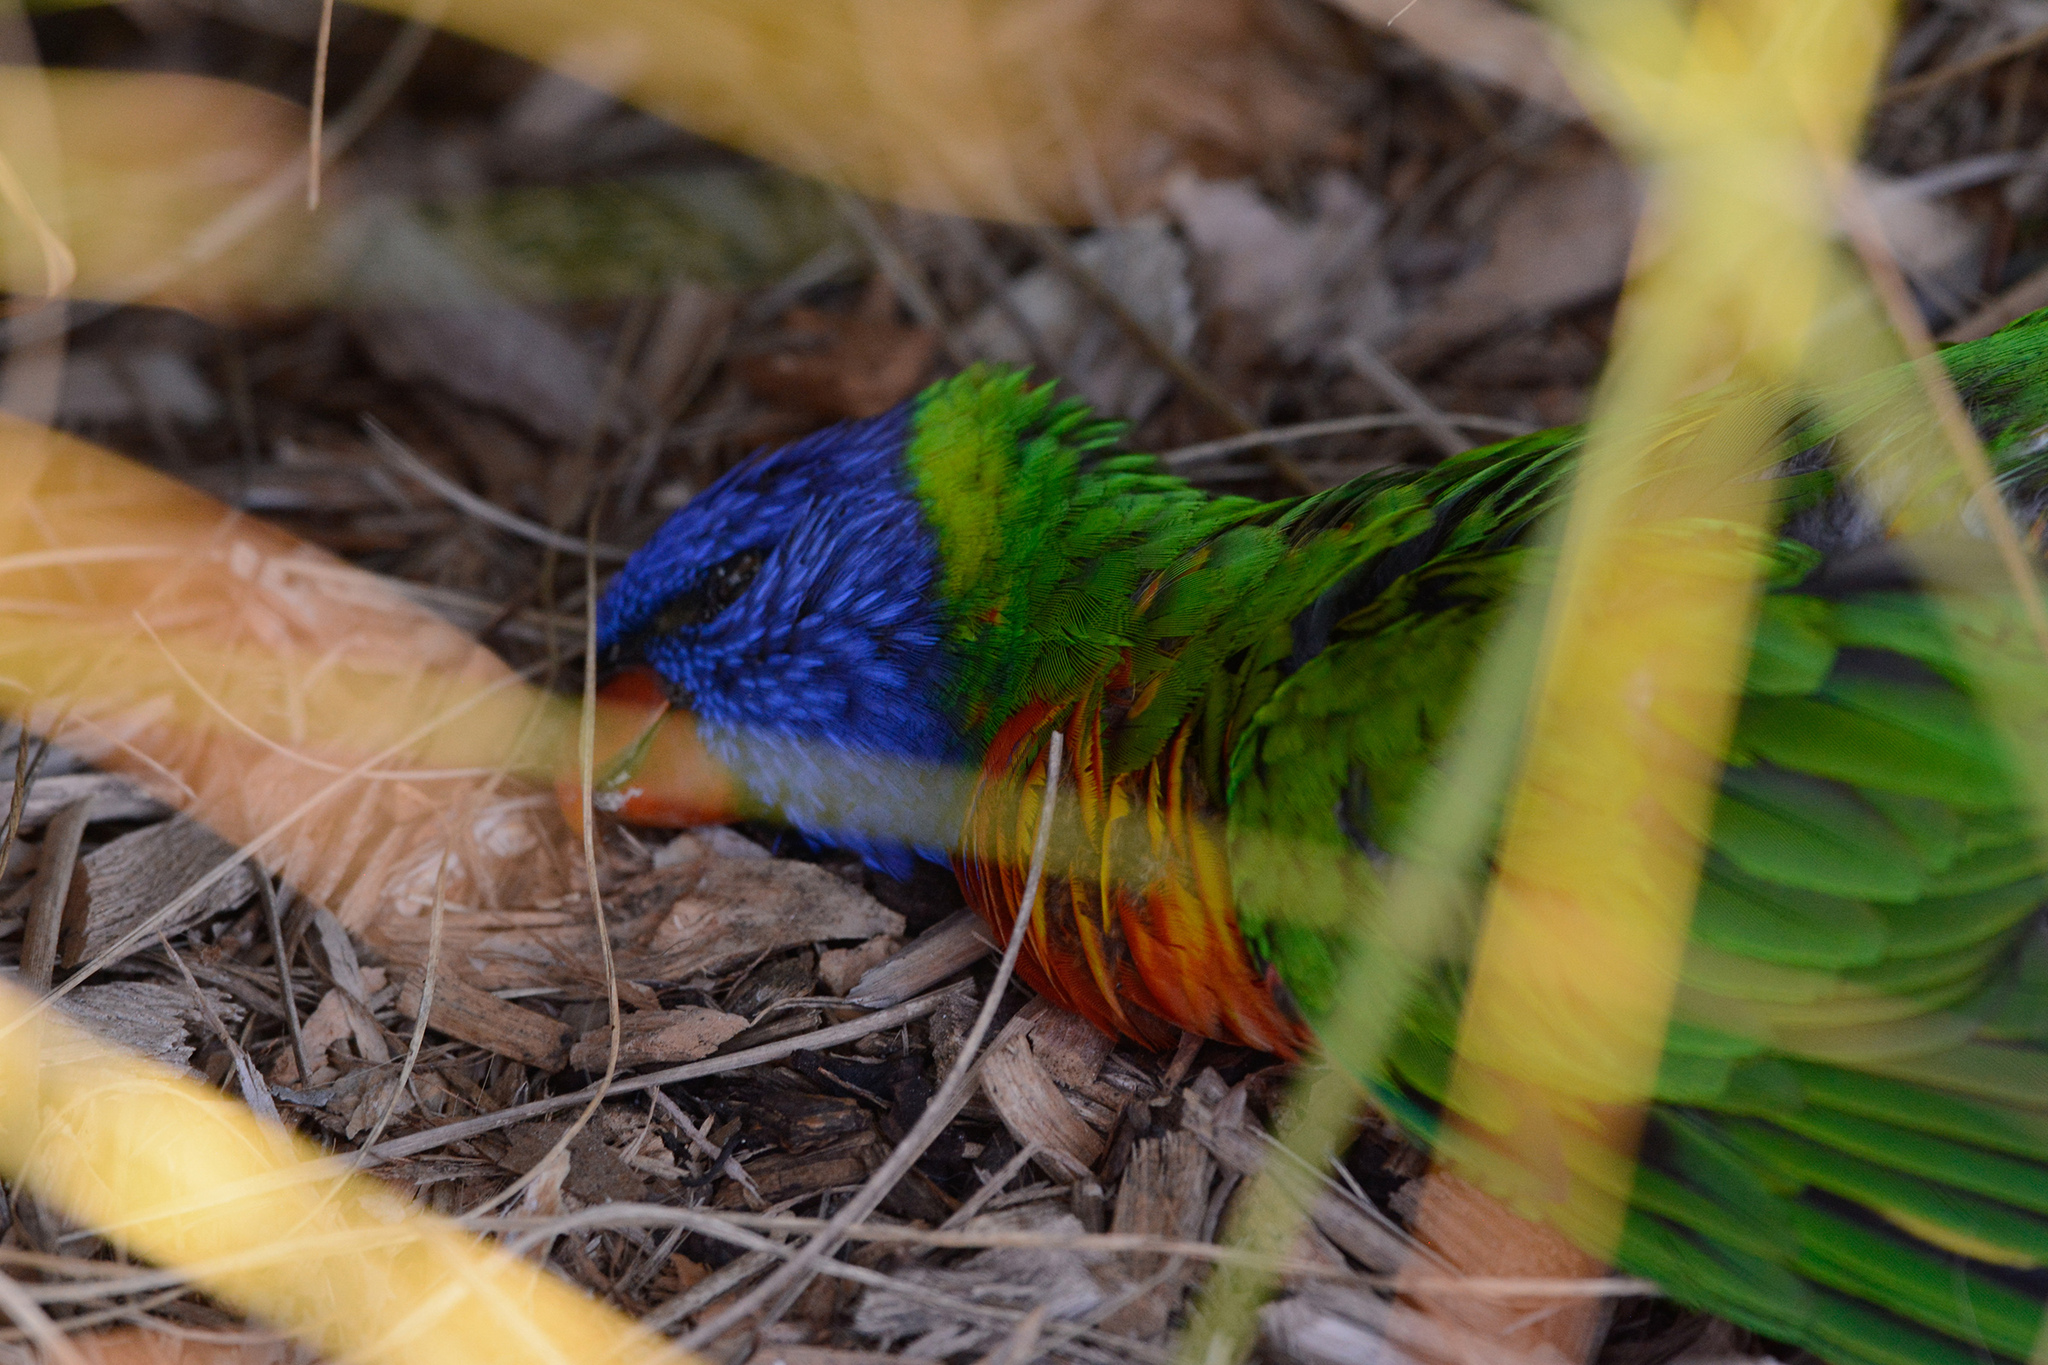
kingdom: Animalia
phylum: Chordata
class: Aves
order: Psittaciformes
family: Psittacidae
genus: Trichoglossus
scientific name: Trichoglossus haematodus
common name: Coconut lorikeet
